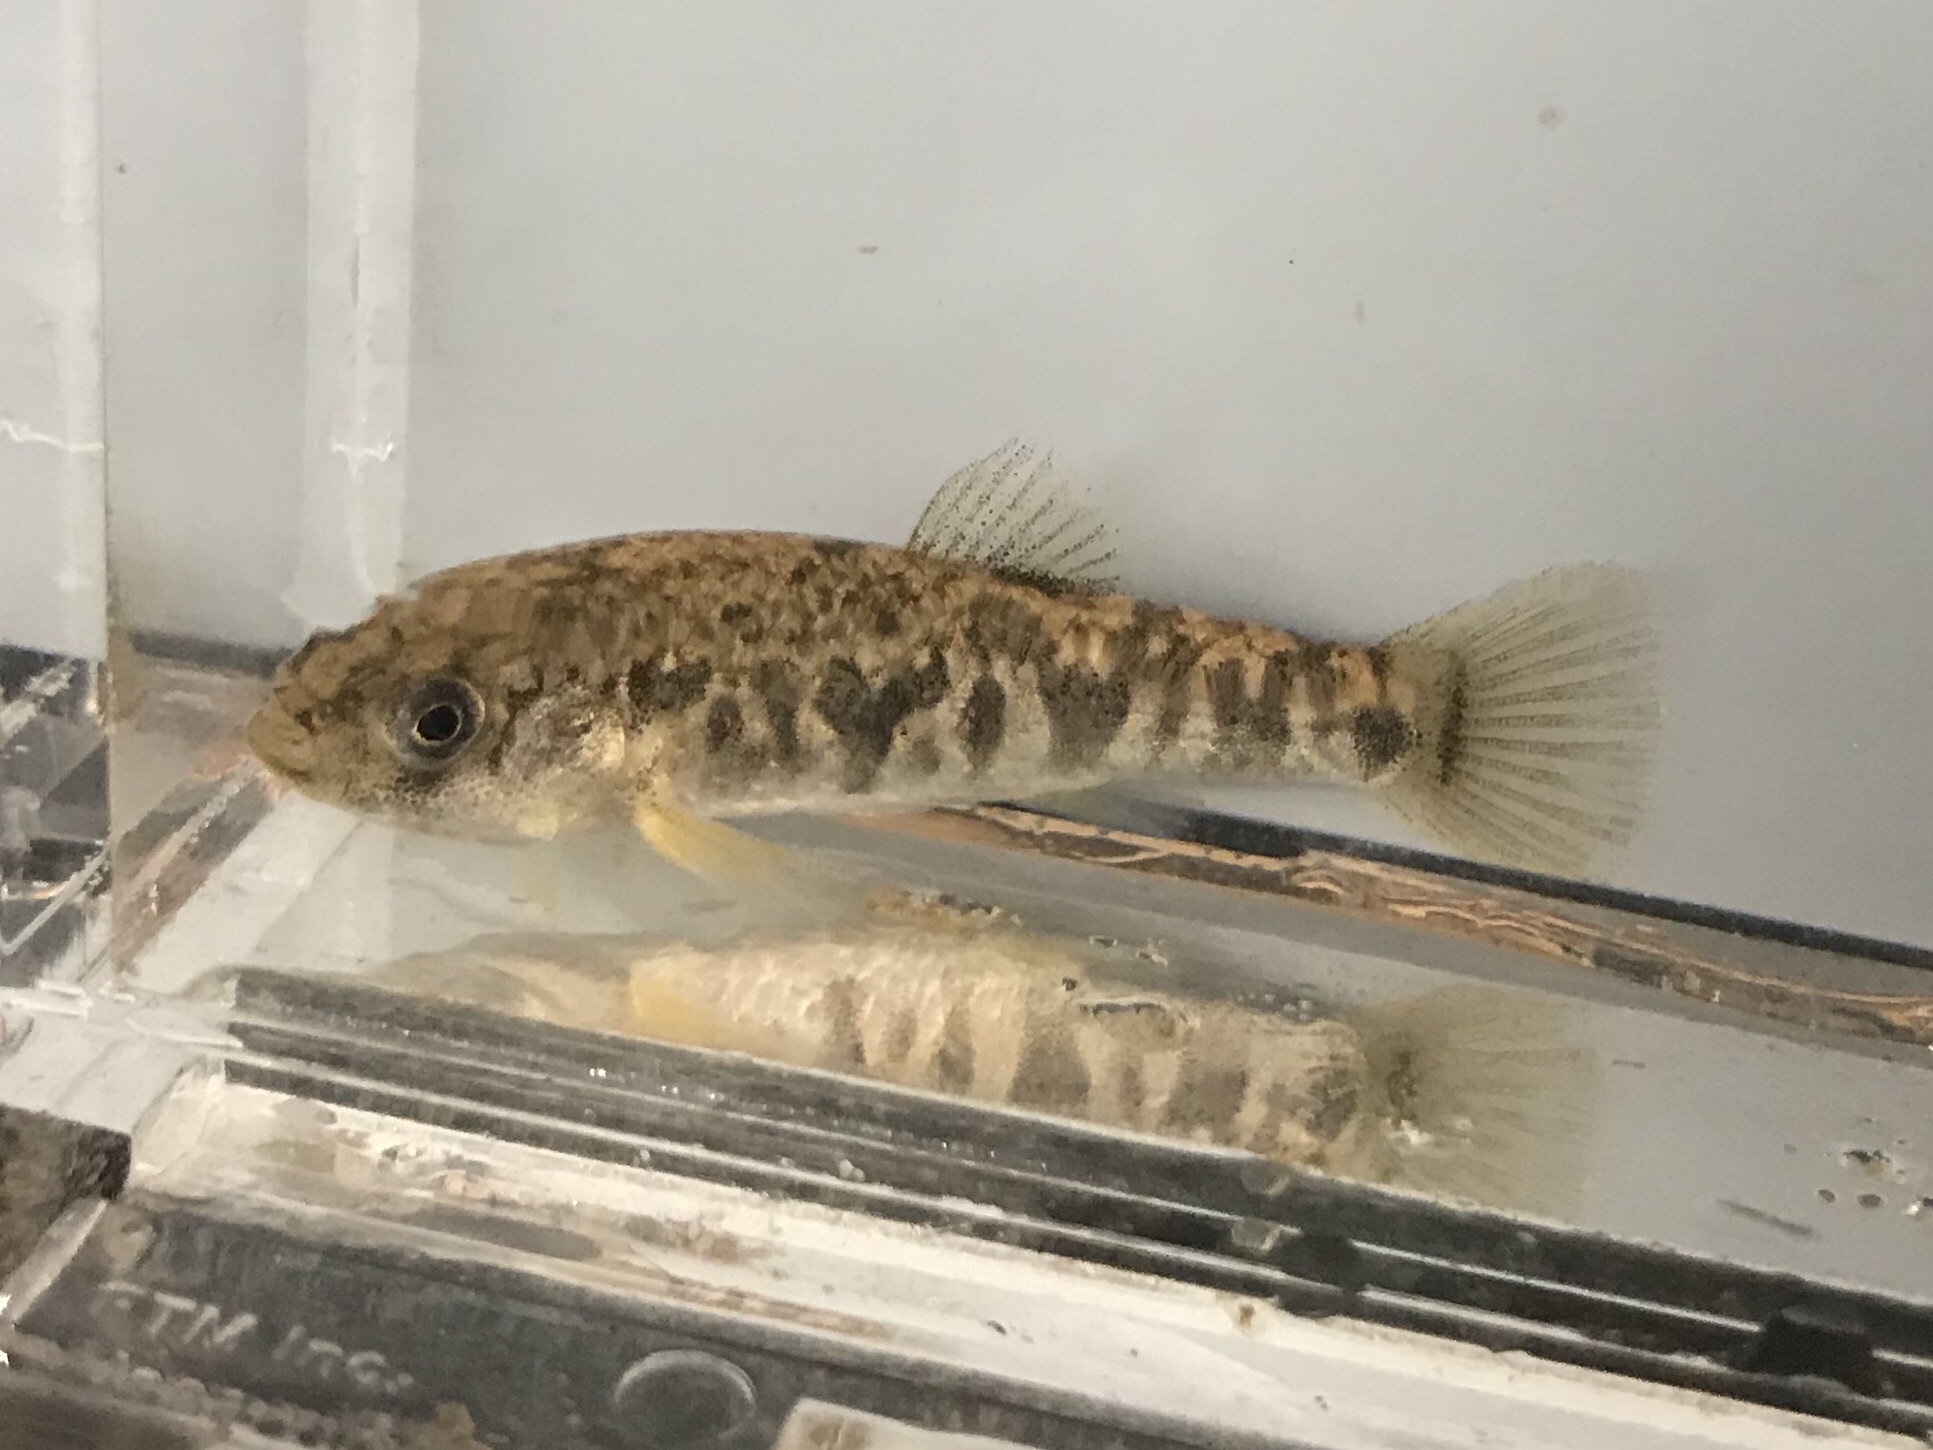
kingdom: Animalia
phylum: Chordata
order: Cyprinodontiformes
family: Cyprinodontidae
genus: Cyprinodon
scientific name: Cyprinodon rubrofluviatilis
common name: Red river pupfish
